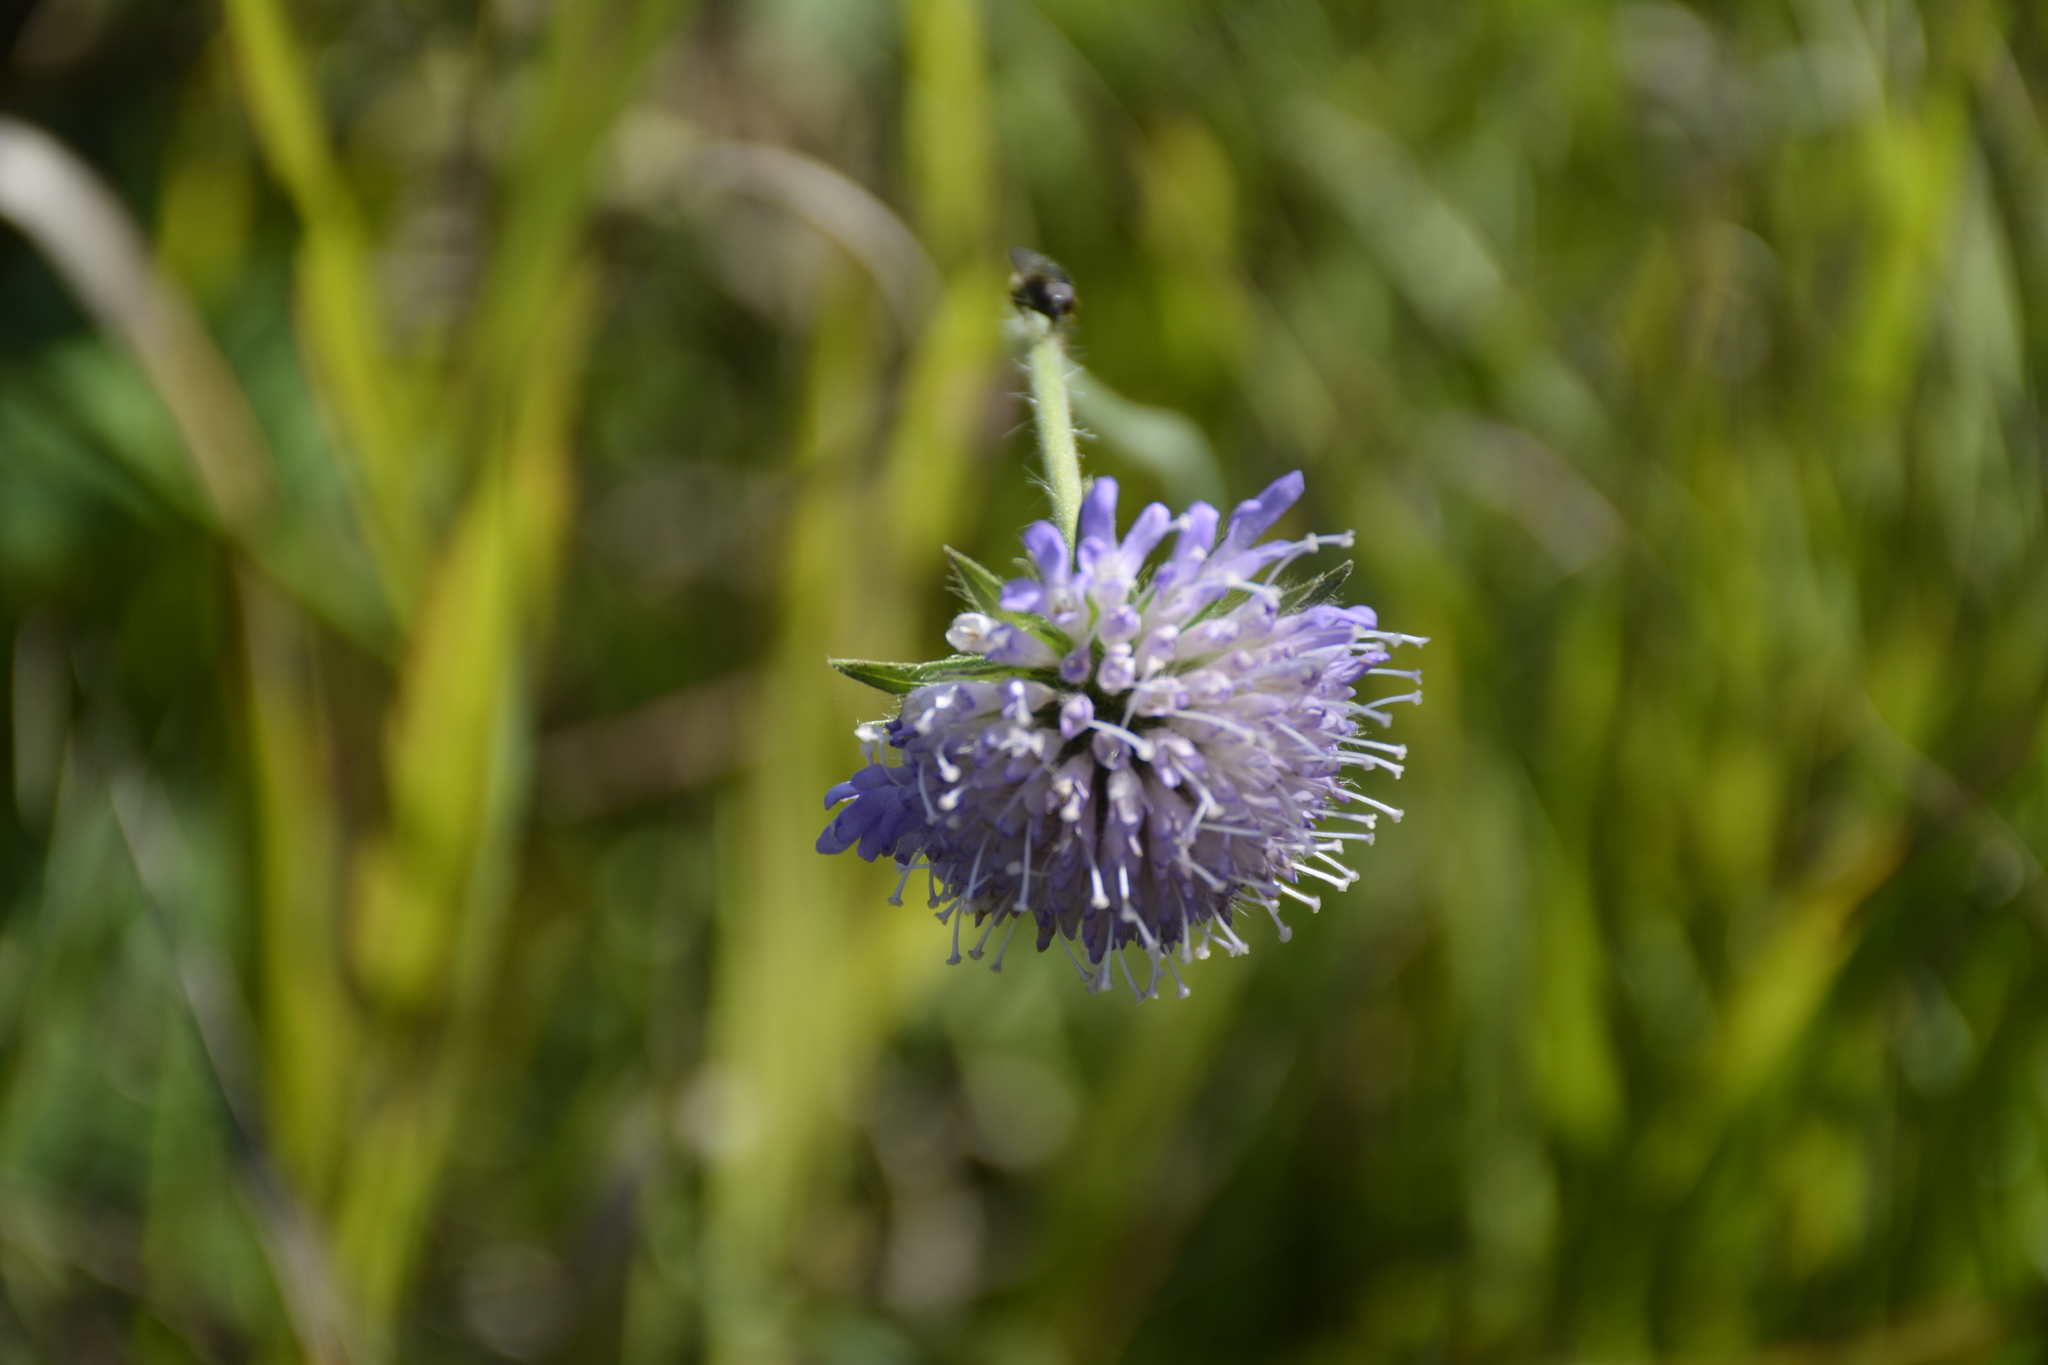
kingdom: Plantae
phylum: Tracheophyta
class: Magnoliopsida
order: Dipsacales
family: Caprifoliaceae
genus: Knautia
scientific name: Knautia arvensis
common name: Field scabiosa
